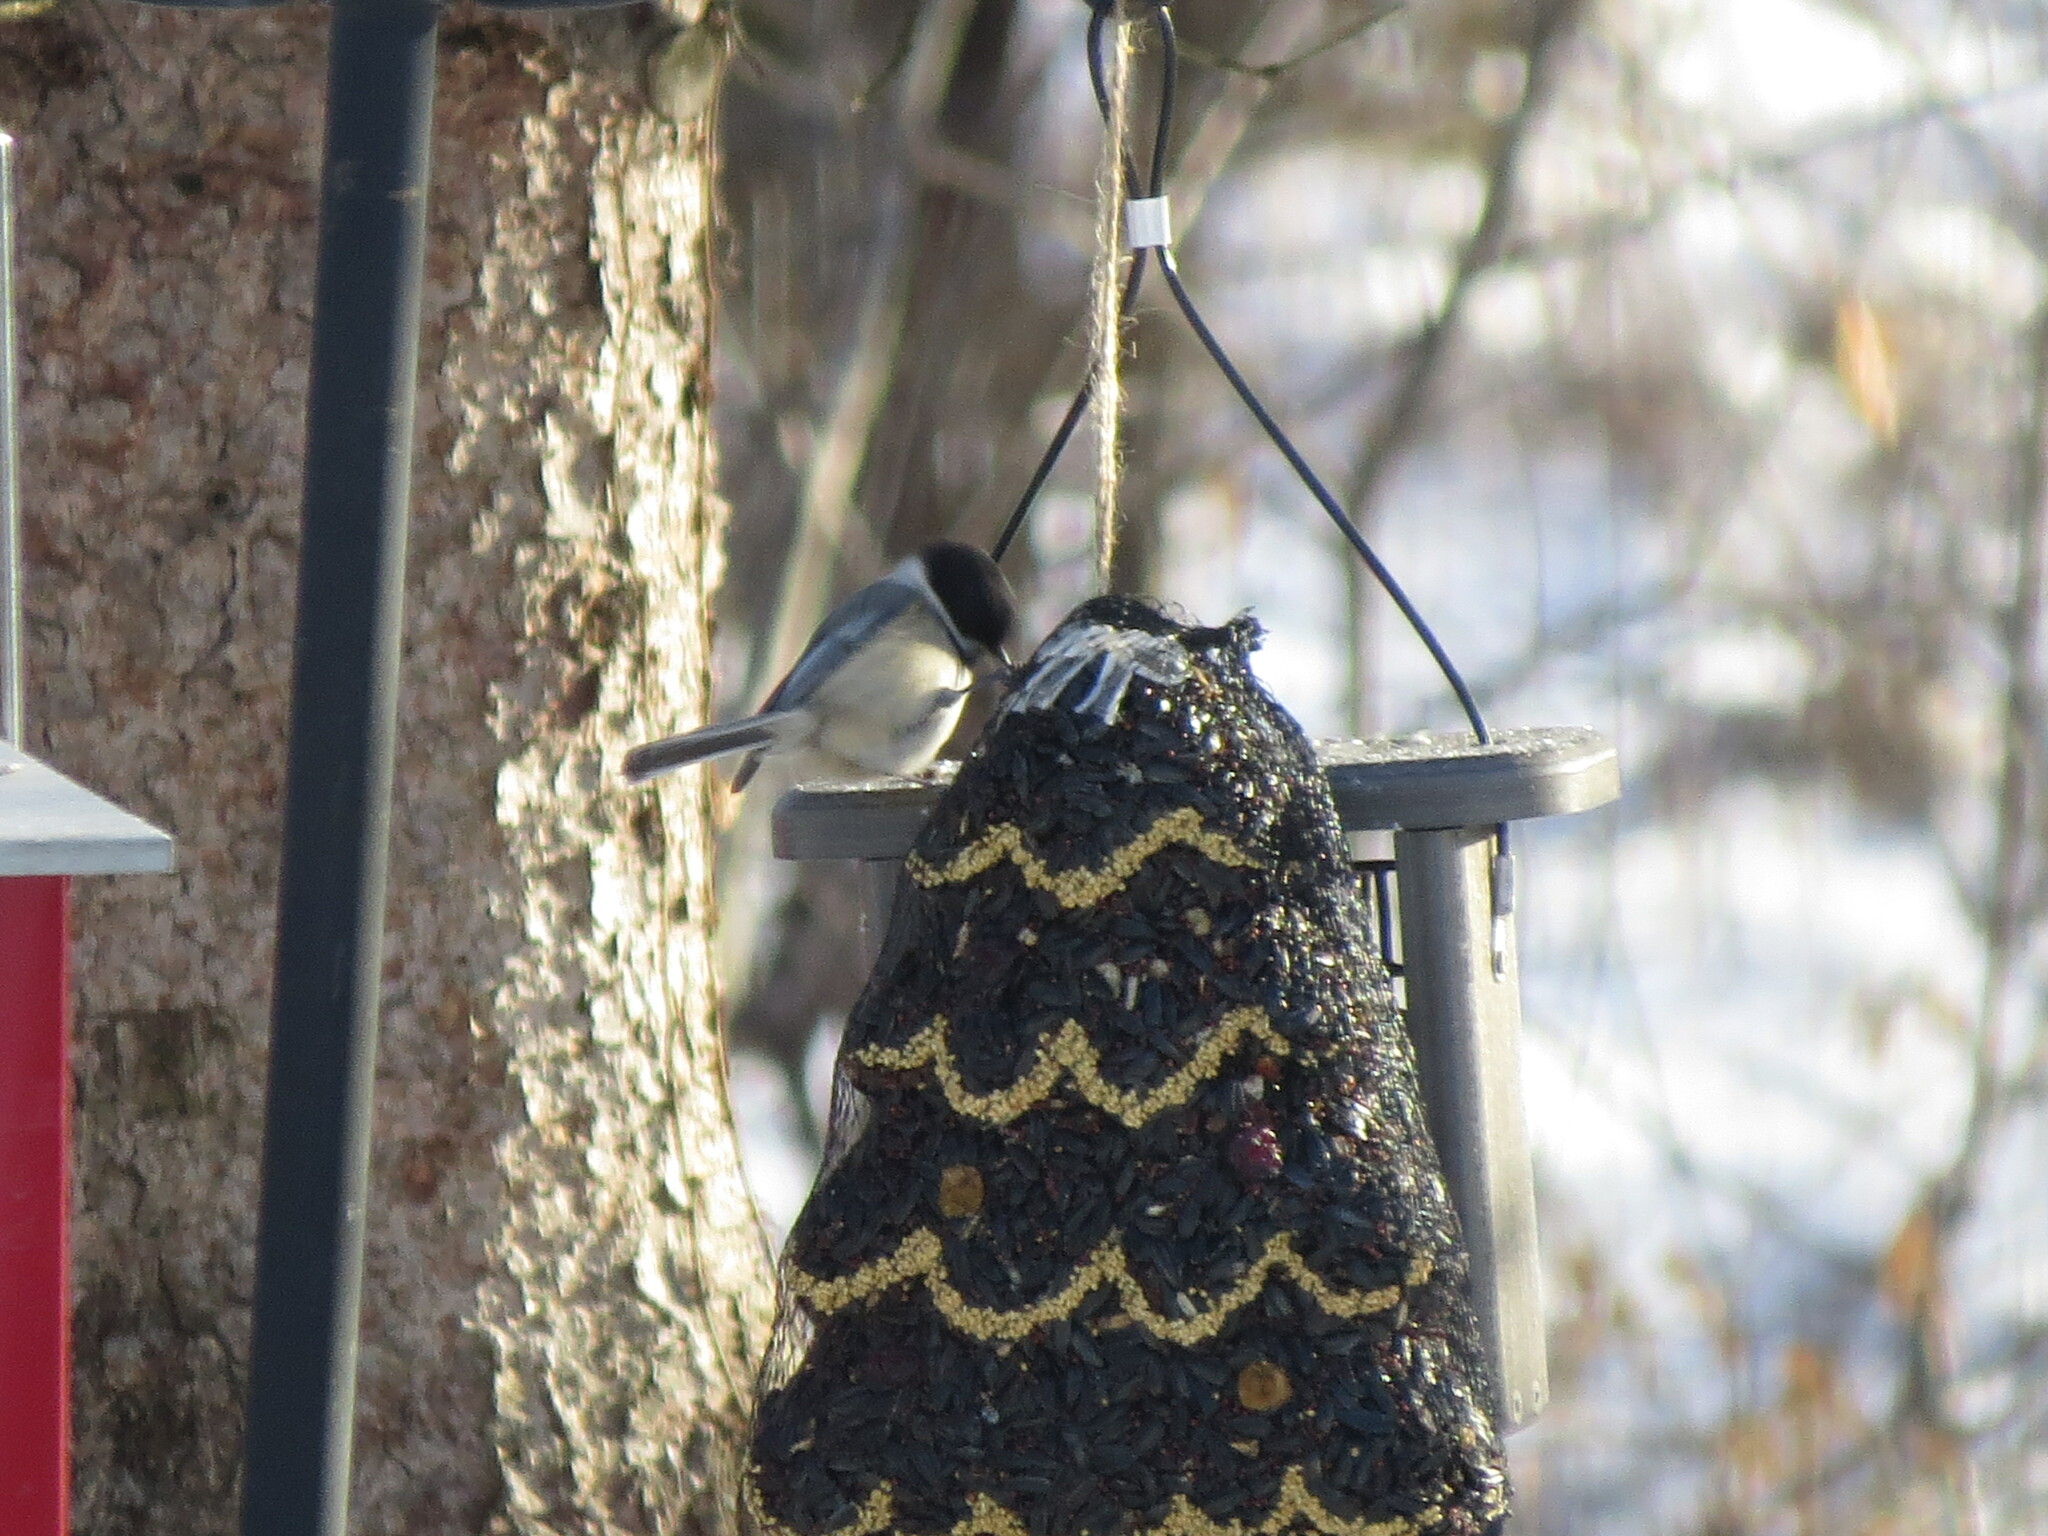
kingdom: Animalia
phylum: Chordata
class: Aves
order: Passeriformes
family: Paridae
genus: Poecile
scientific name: Poecile atricapillus
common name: Black-capped chickadee
